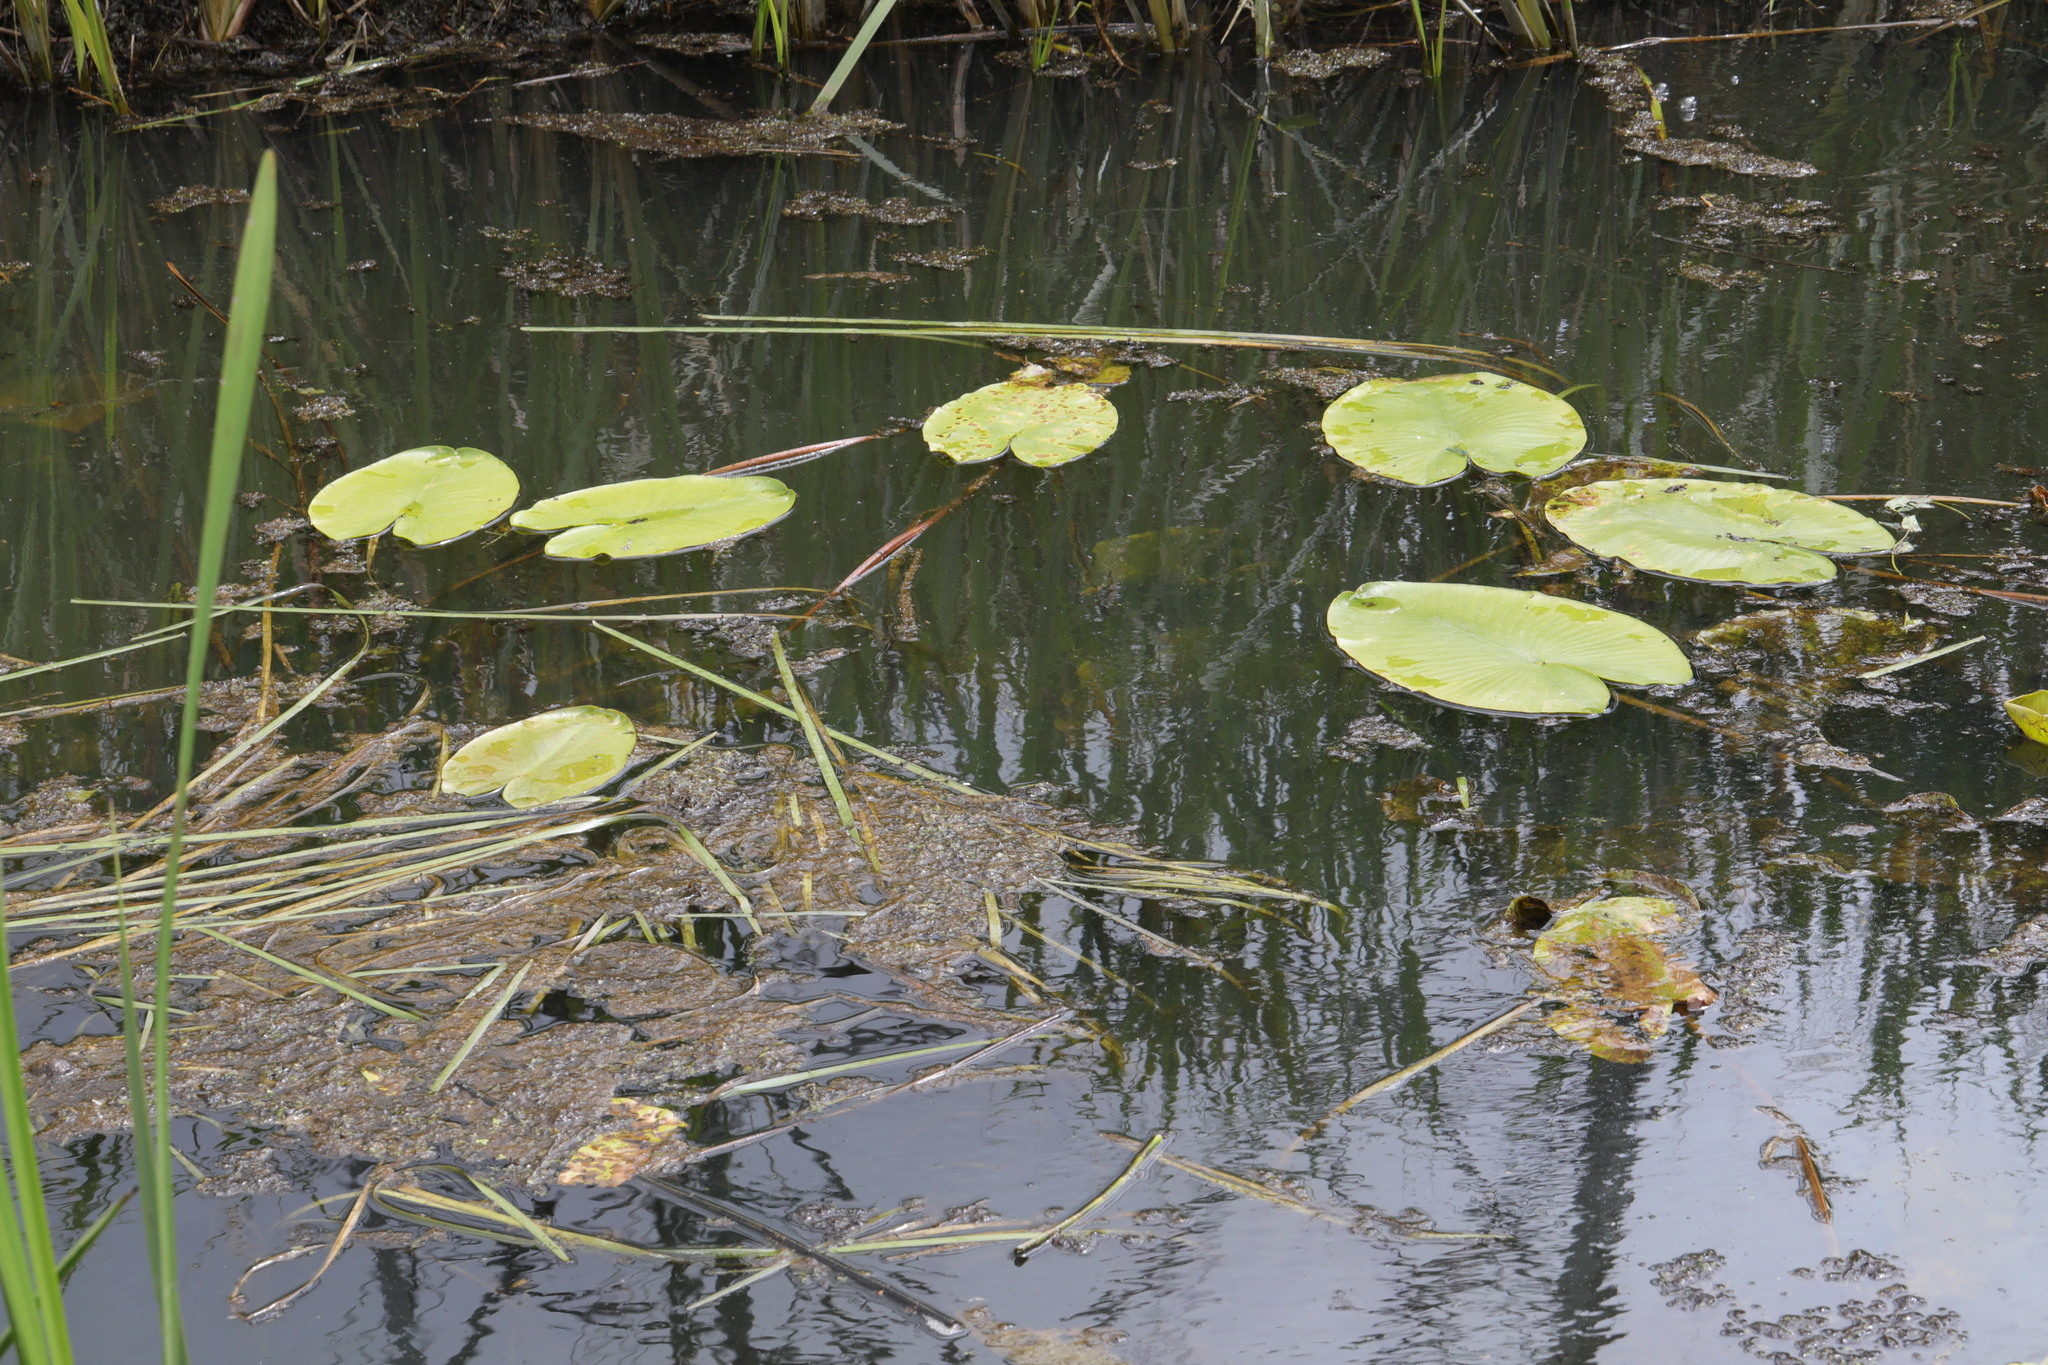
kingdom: Plantae
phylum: Tracheophyta
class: Magnoliopsida
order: Nymphaeales
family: Nymphaeaceae
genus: Nuphar
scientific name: Nuphar lutea
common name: Yellow water-lily
